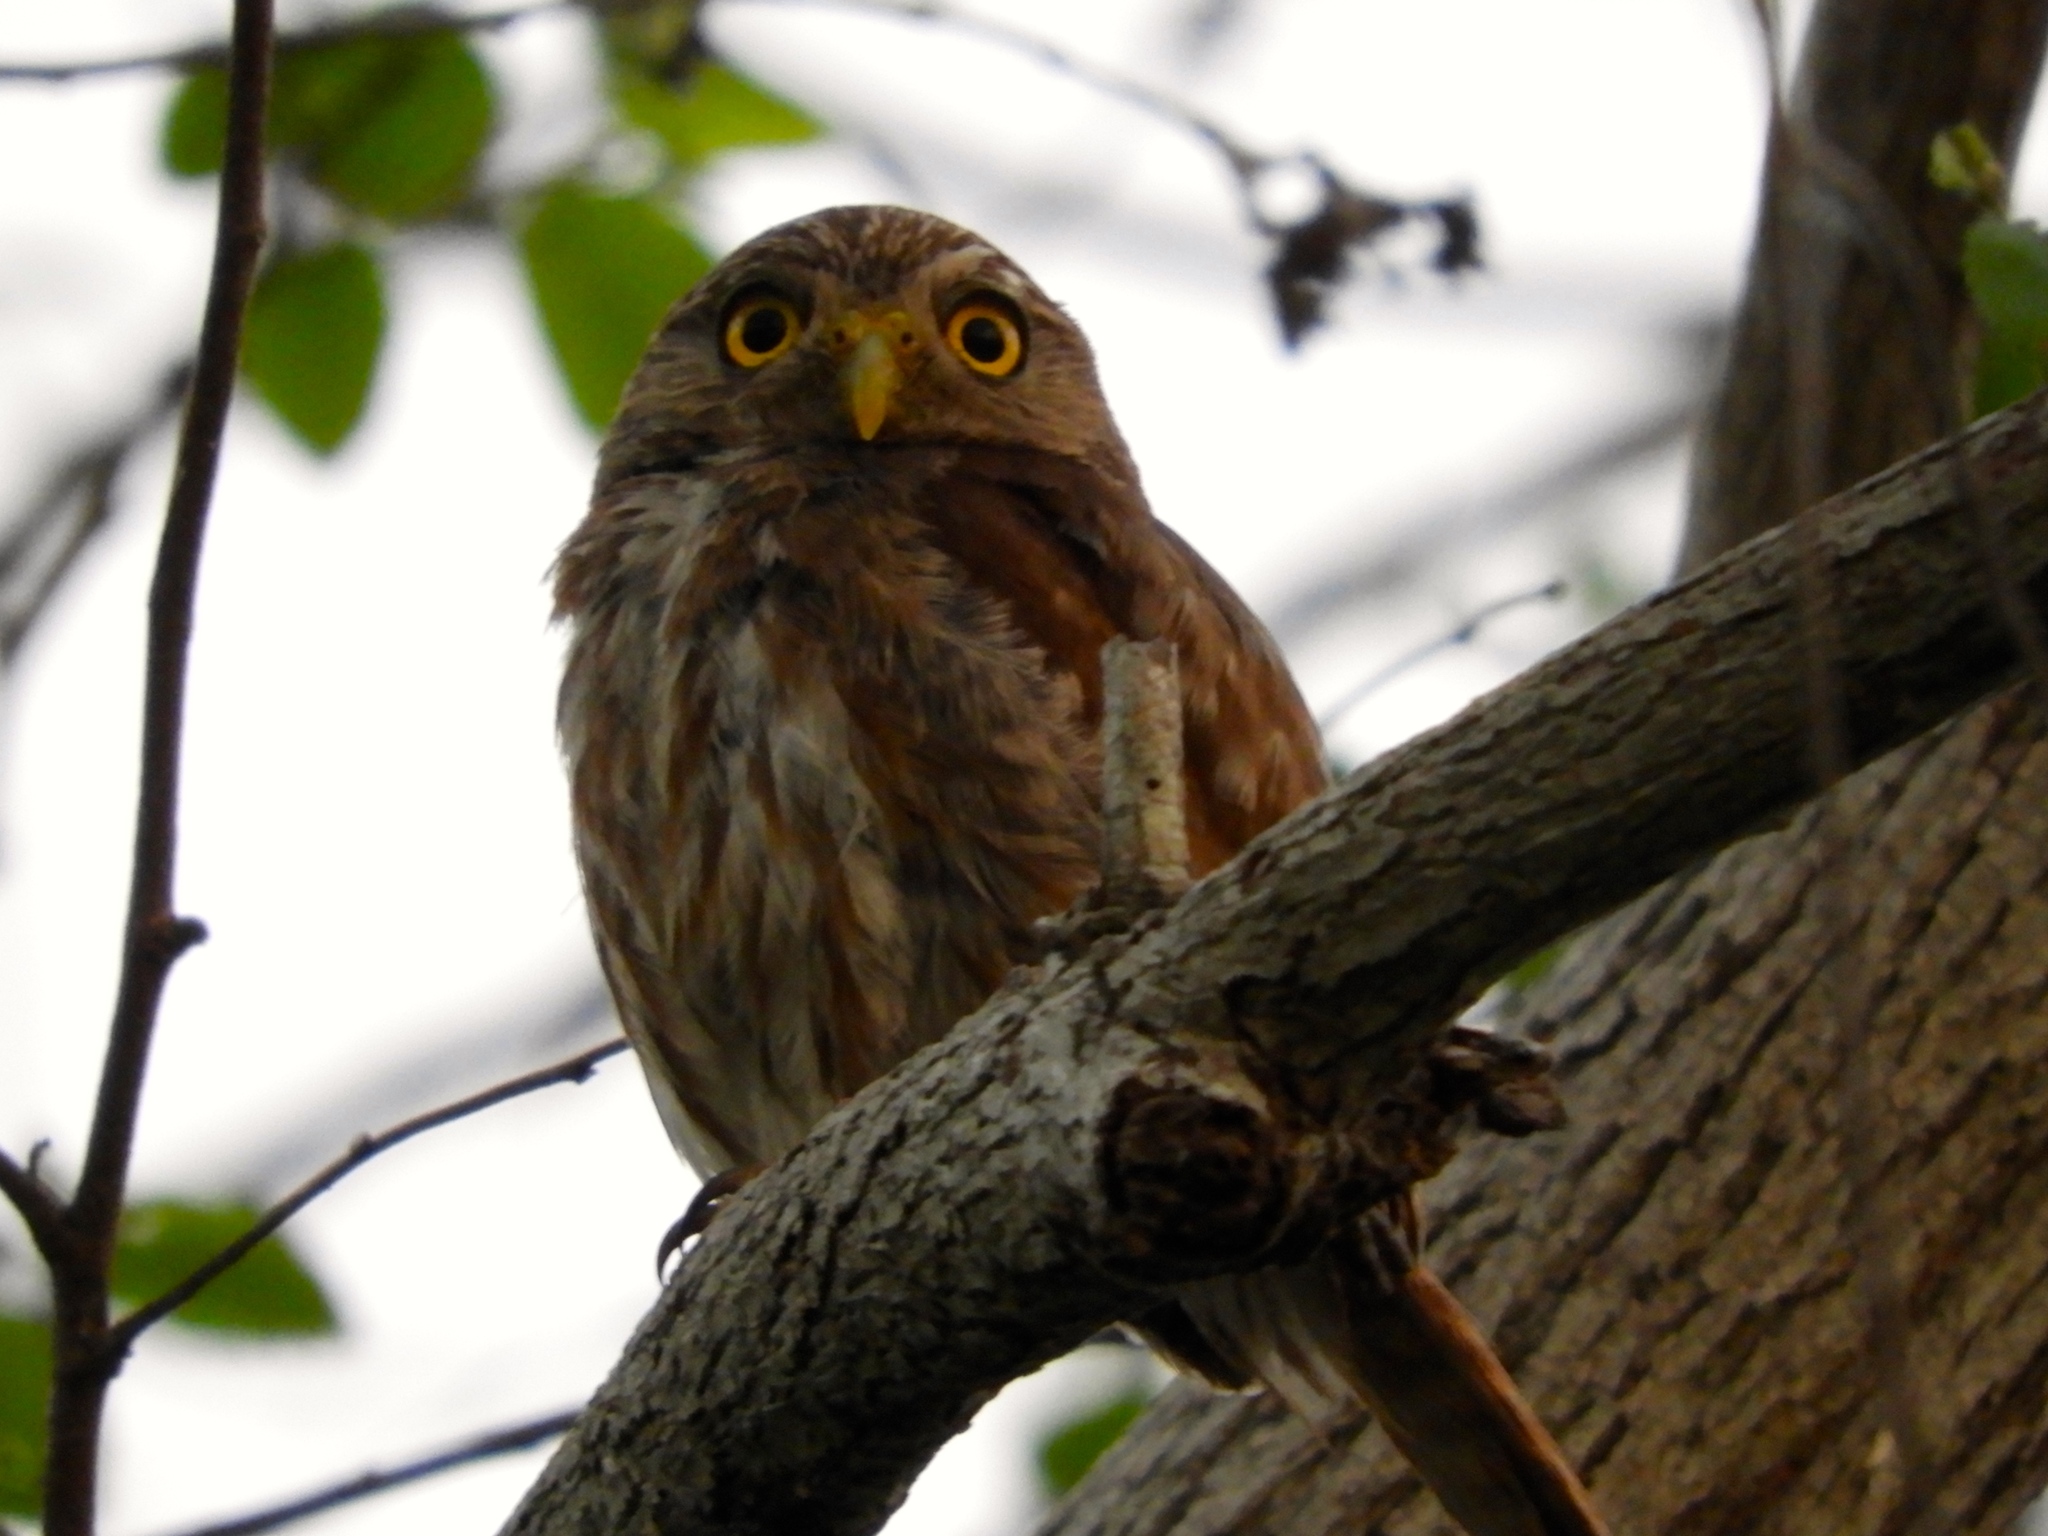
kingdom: Animalia
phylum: Chordata
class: Aves
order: Strigiformes
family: Strigidae
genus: Glaucidium
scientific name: Glaucidium brasilianum
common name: Ferruginous pygmy-owl
